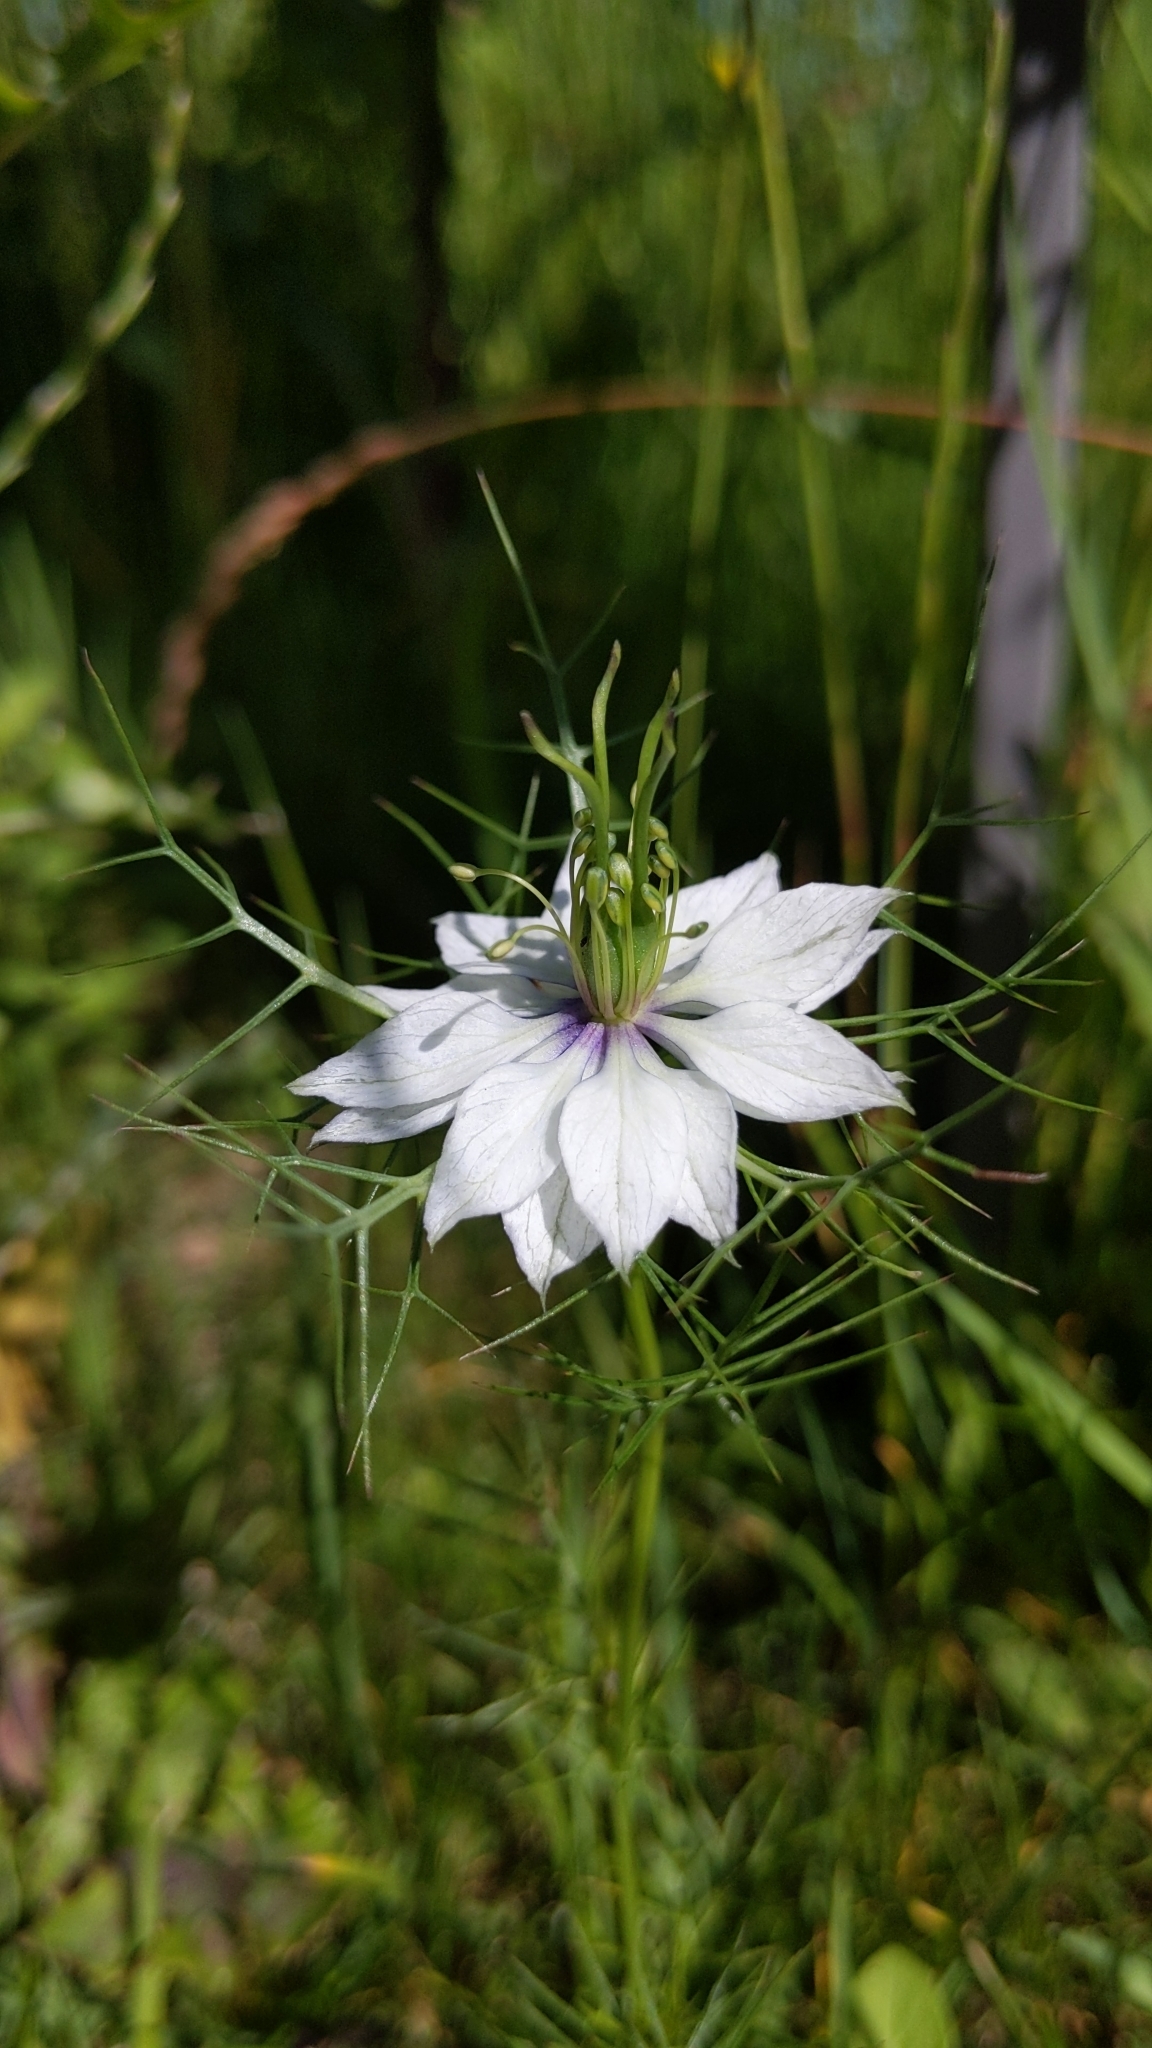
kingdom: Plantae
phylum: Tracheophyta
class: Magnoliopsida
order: Ranunculales
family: Ranunculaceae
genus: Nigella
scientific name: Nigella damascena
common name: Love-in-a-mist
